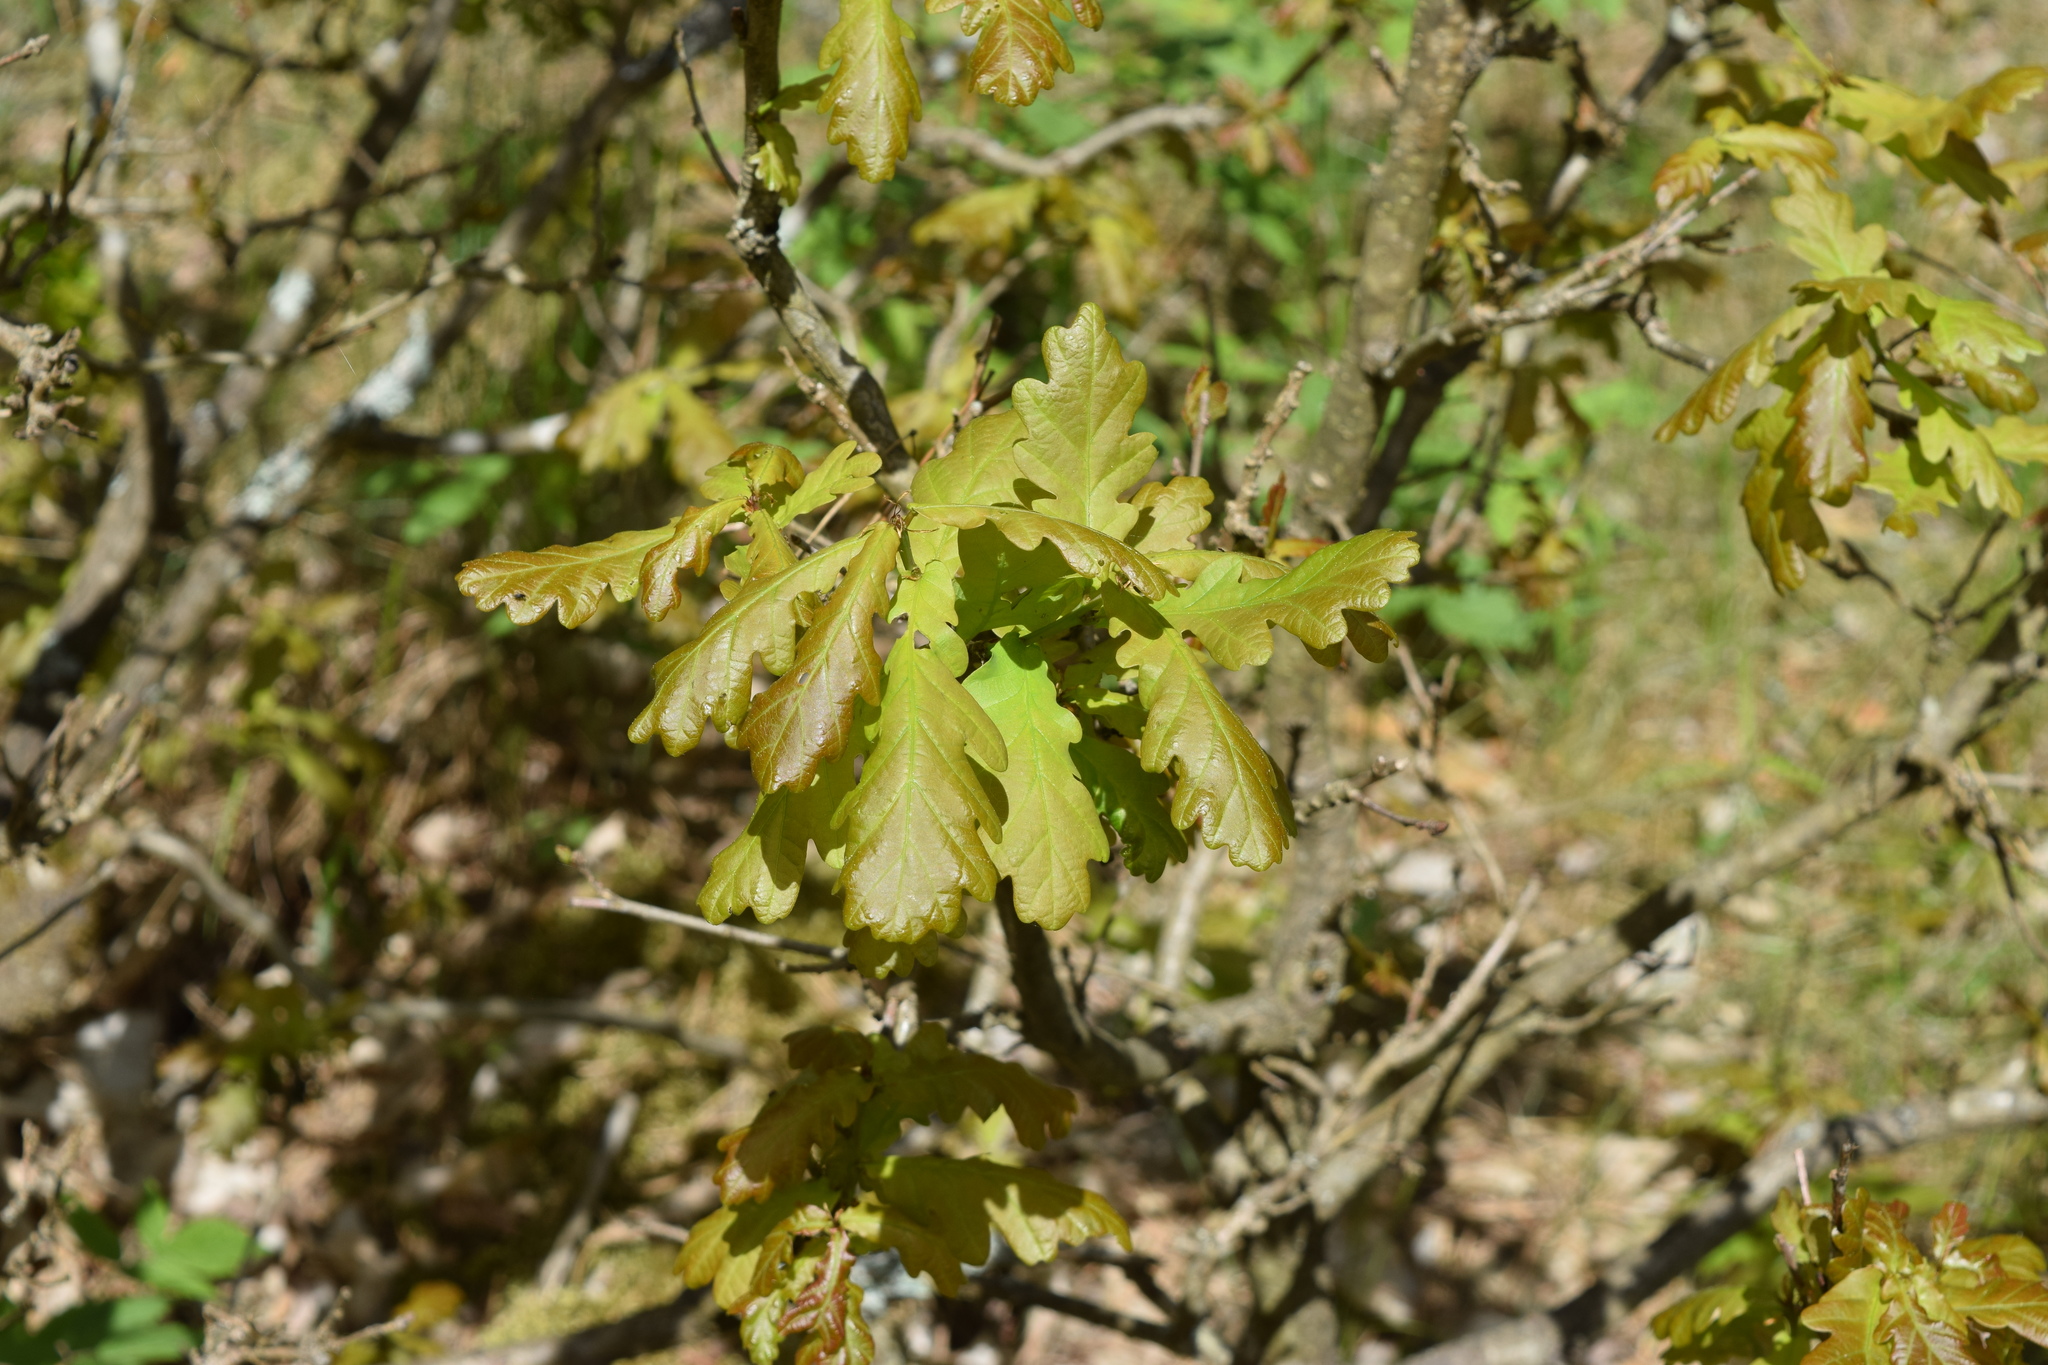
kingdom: Plantae
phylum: Tracheophyta
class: Magnoliopsida
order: Fagales
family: Fagaceae
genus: Quercus
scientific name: Quercus robur
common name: Pedunculate oak
